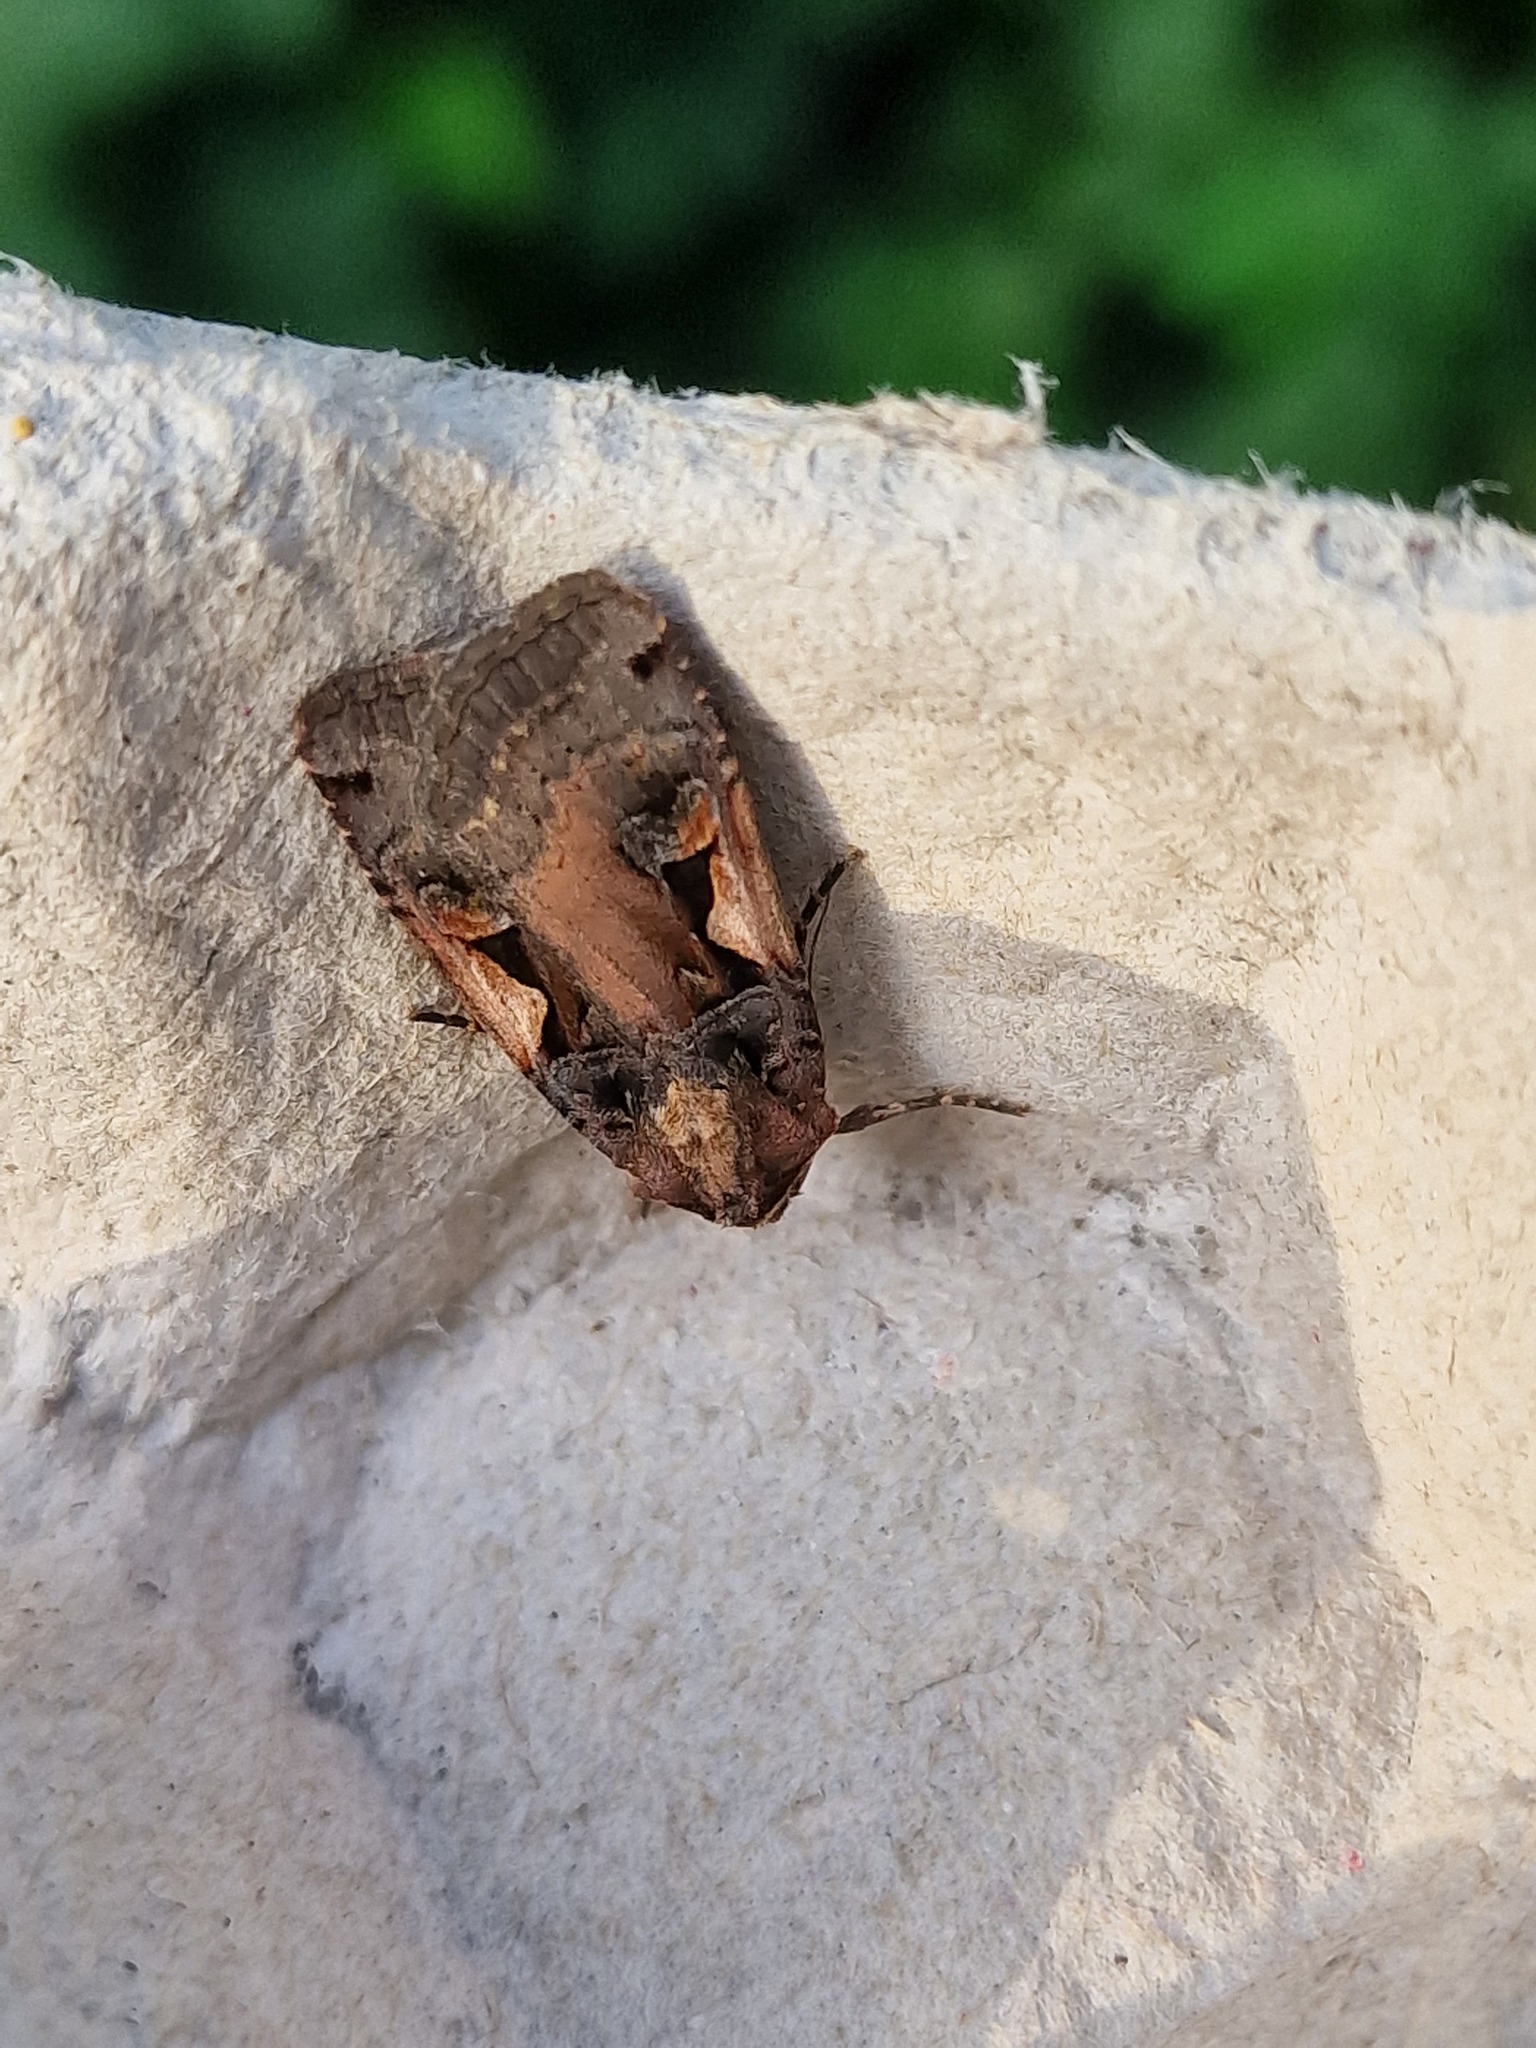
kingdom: Animalia
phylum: Arthropoda
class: Insecta
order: Lepidoptera
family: Noctuidae
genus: Xestia
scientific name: Xestia c-nigrum
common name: Setaceous hebrew character
